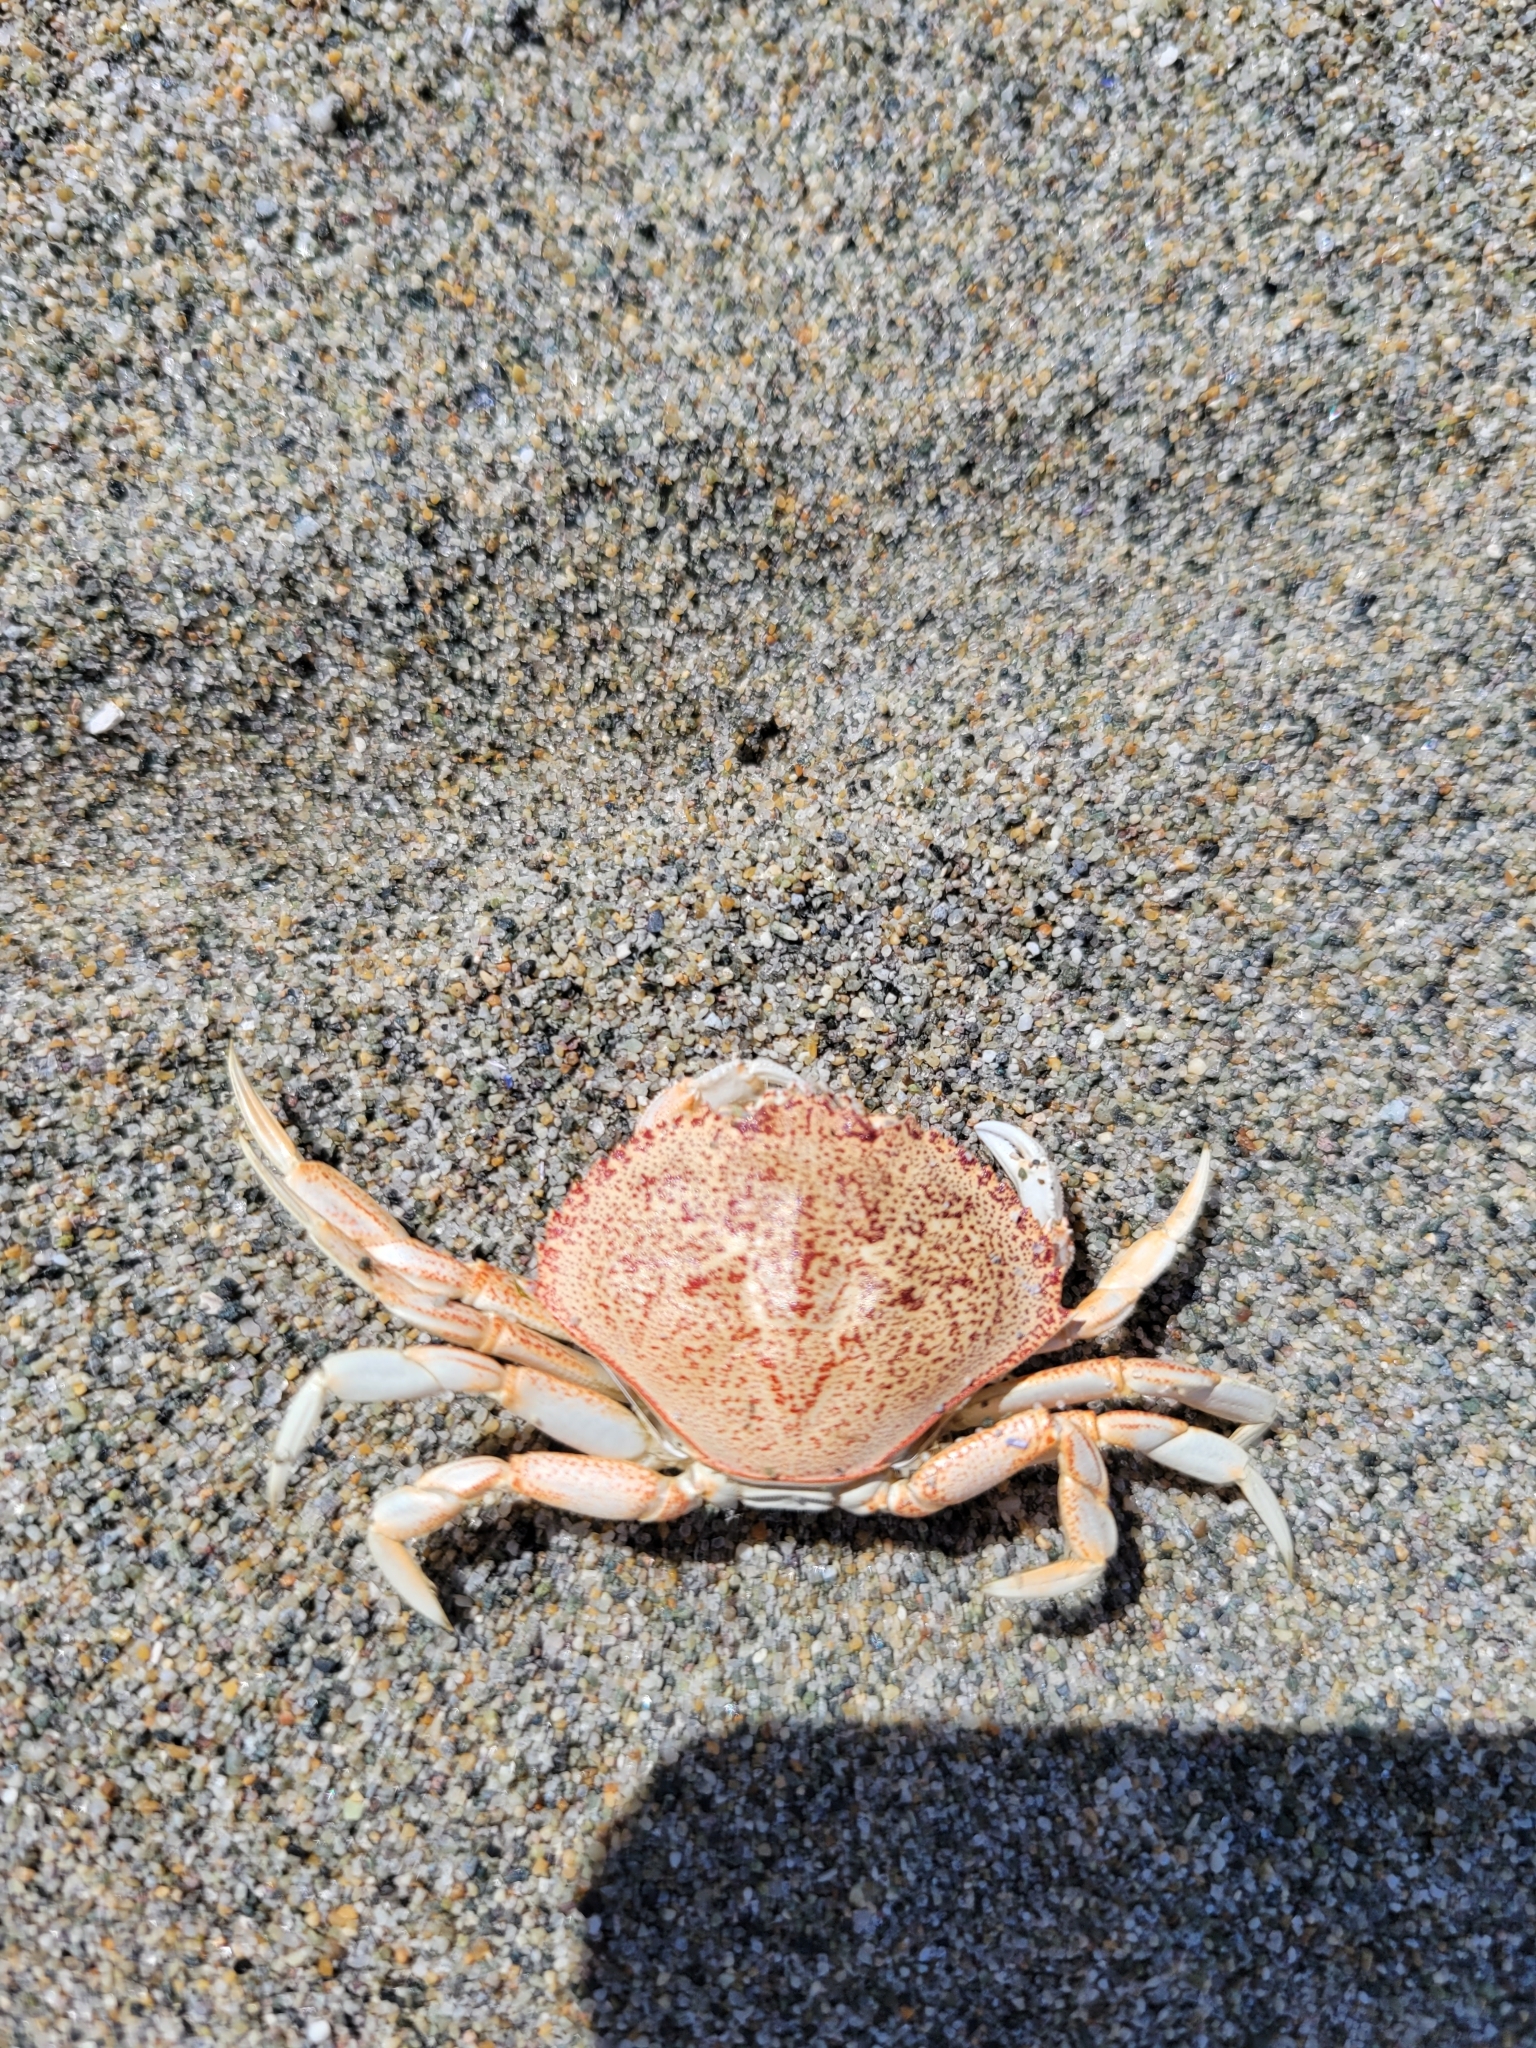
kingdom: Animalia
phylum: Arthropoda
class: Malacostraca
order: Decapoda
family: Cancridae
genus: Metacarcinus
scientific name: Metacarcinus magister
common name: Californian crab
